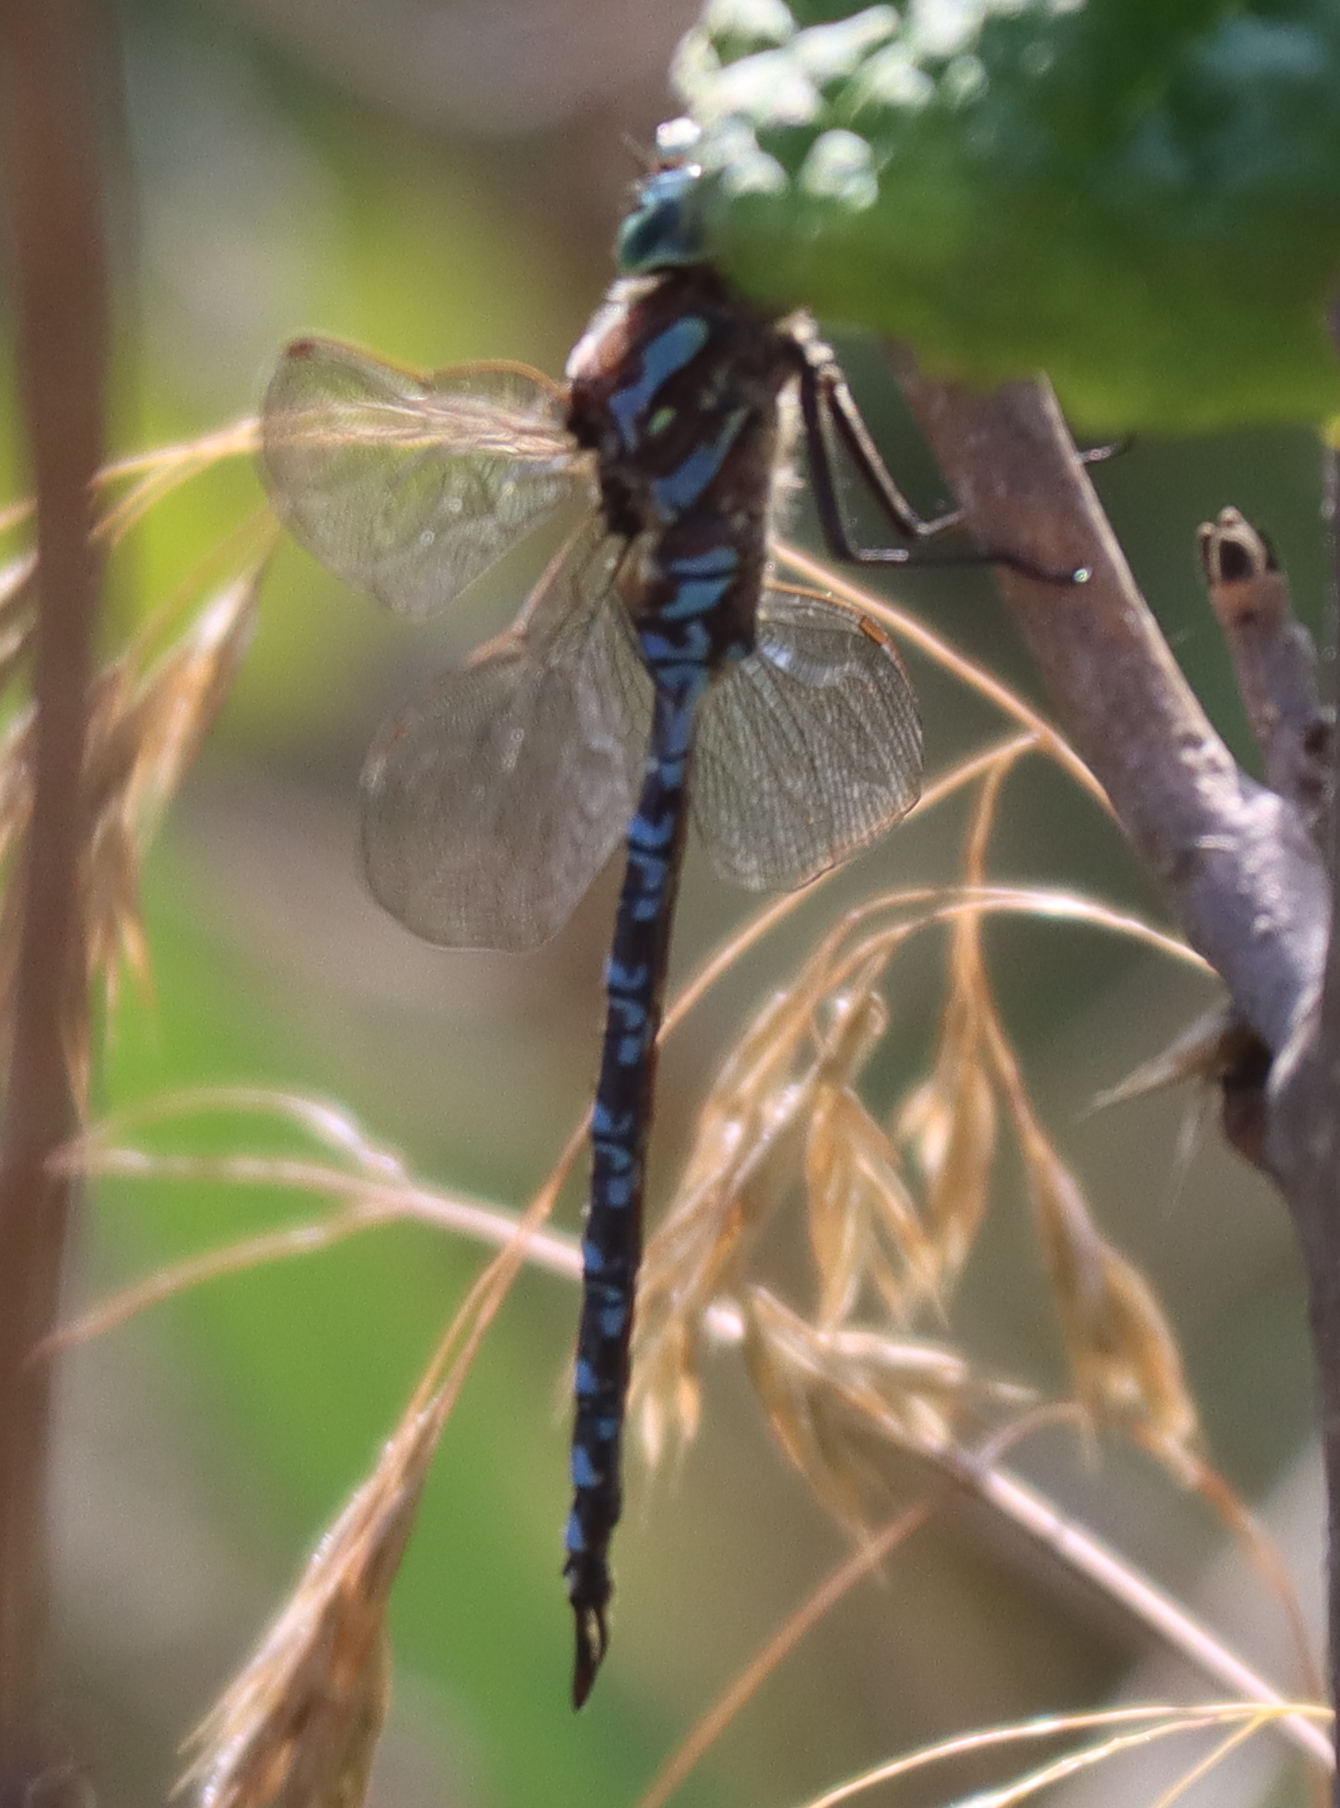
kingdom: Animalia
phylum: Arthropoda
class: Insecta
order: Odonata
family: Aeshnidae
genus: Aeshna
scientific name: Aeshna canadensis
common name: Canada darner
